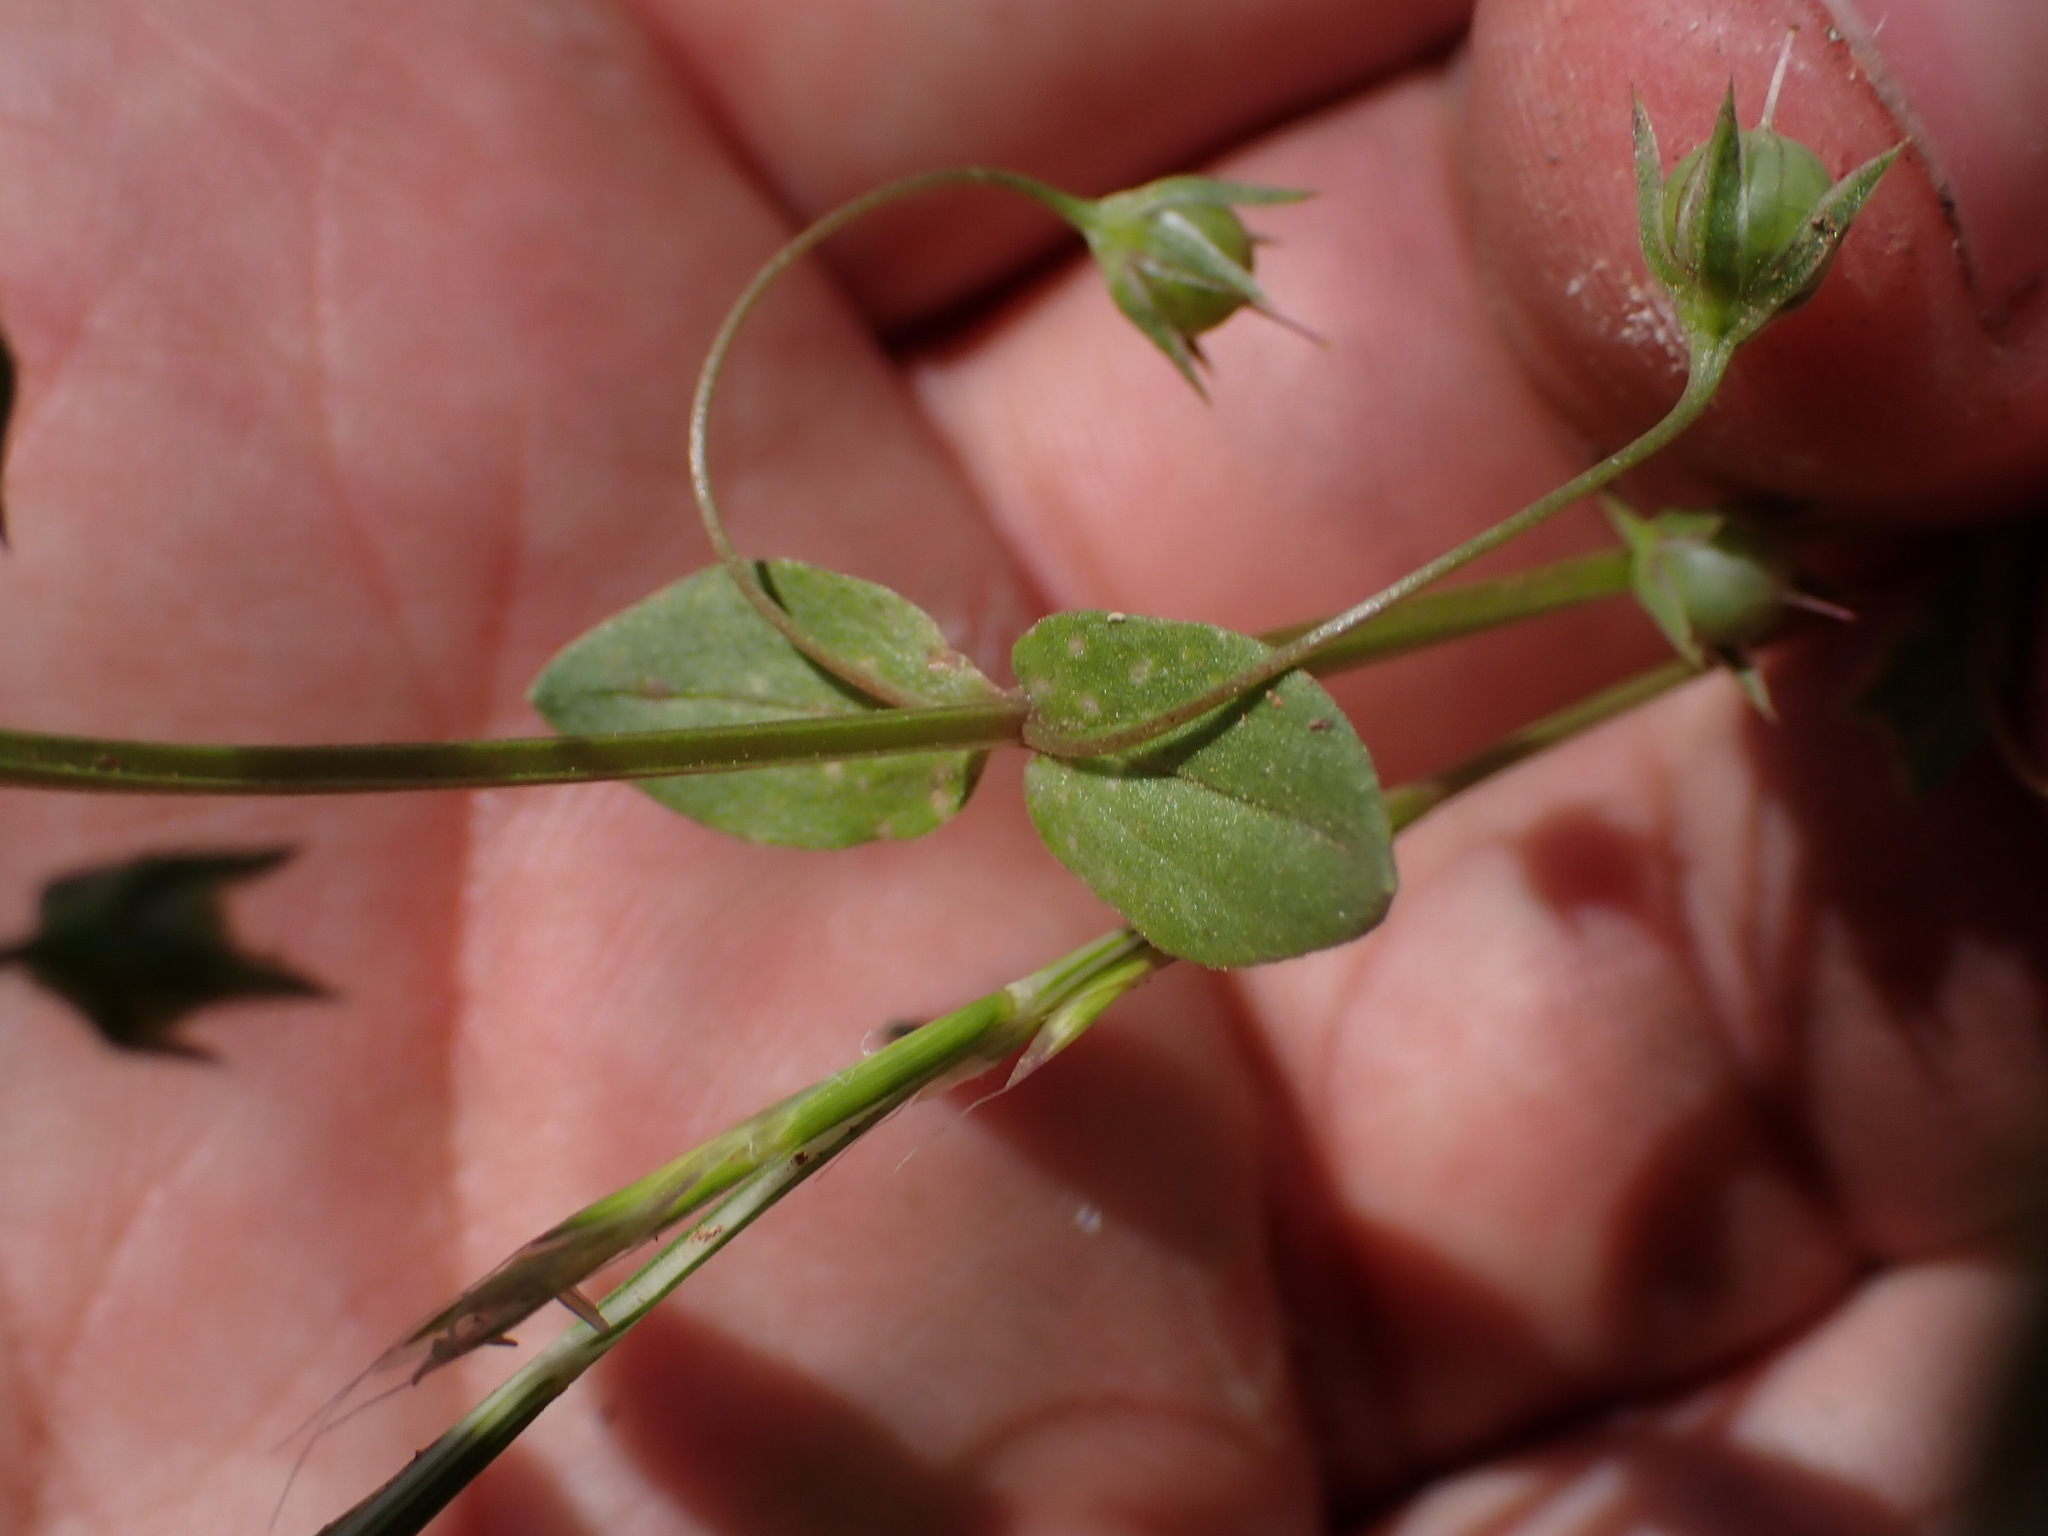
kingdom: Plantae
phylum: Tracheophyta
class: Magnoliopsida
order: Ericales
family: Primulaceae
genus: Lysimachia
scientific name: Lysimachia arvensis
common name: Scarlet pimpernel
